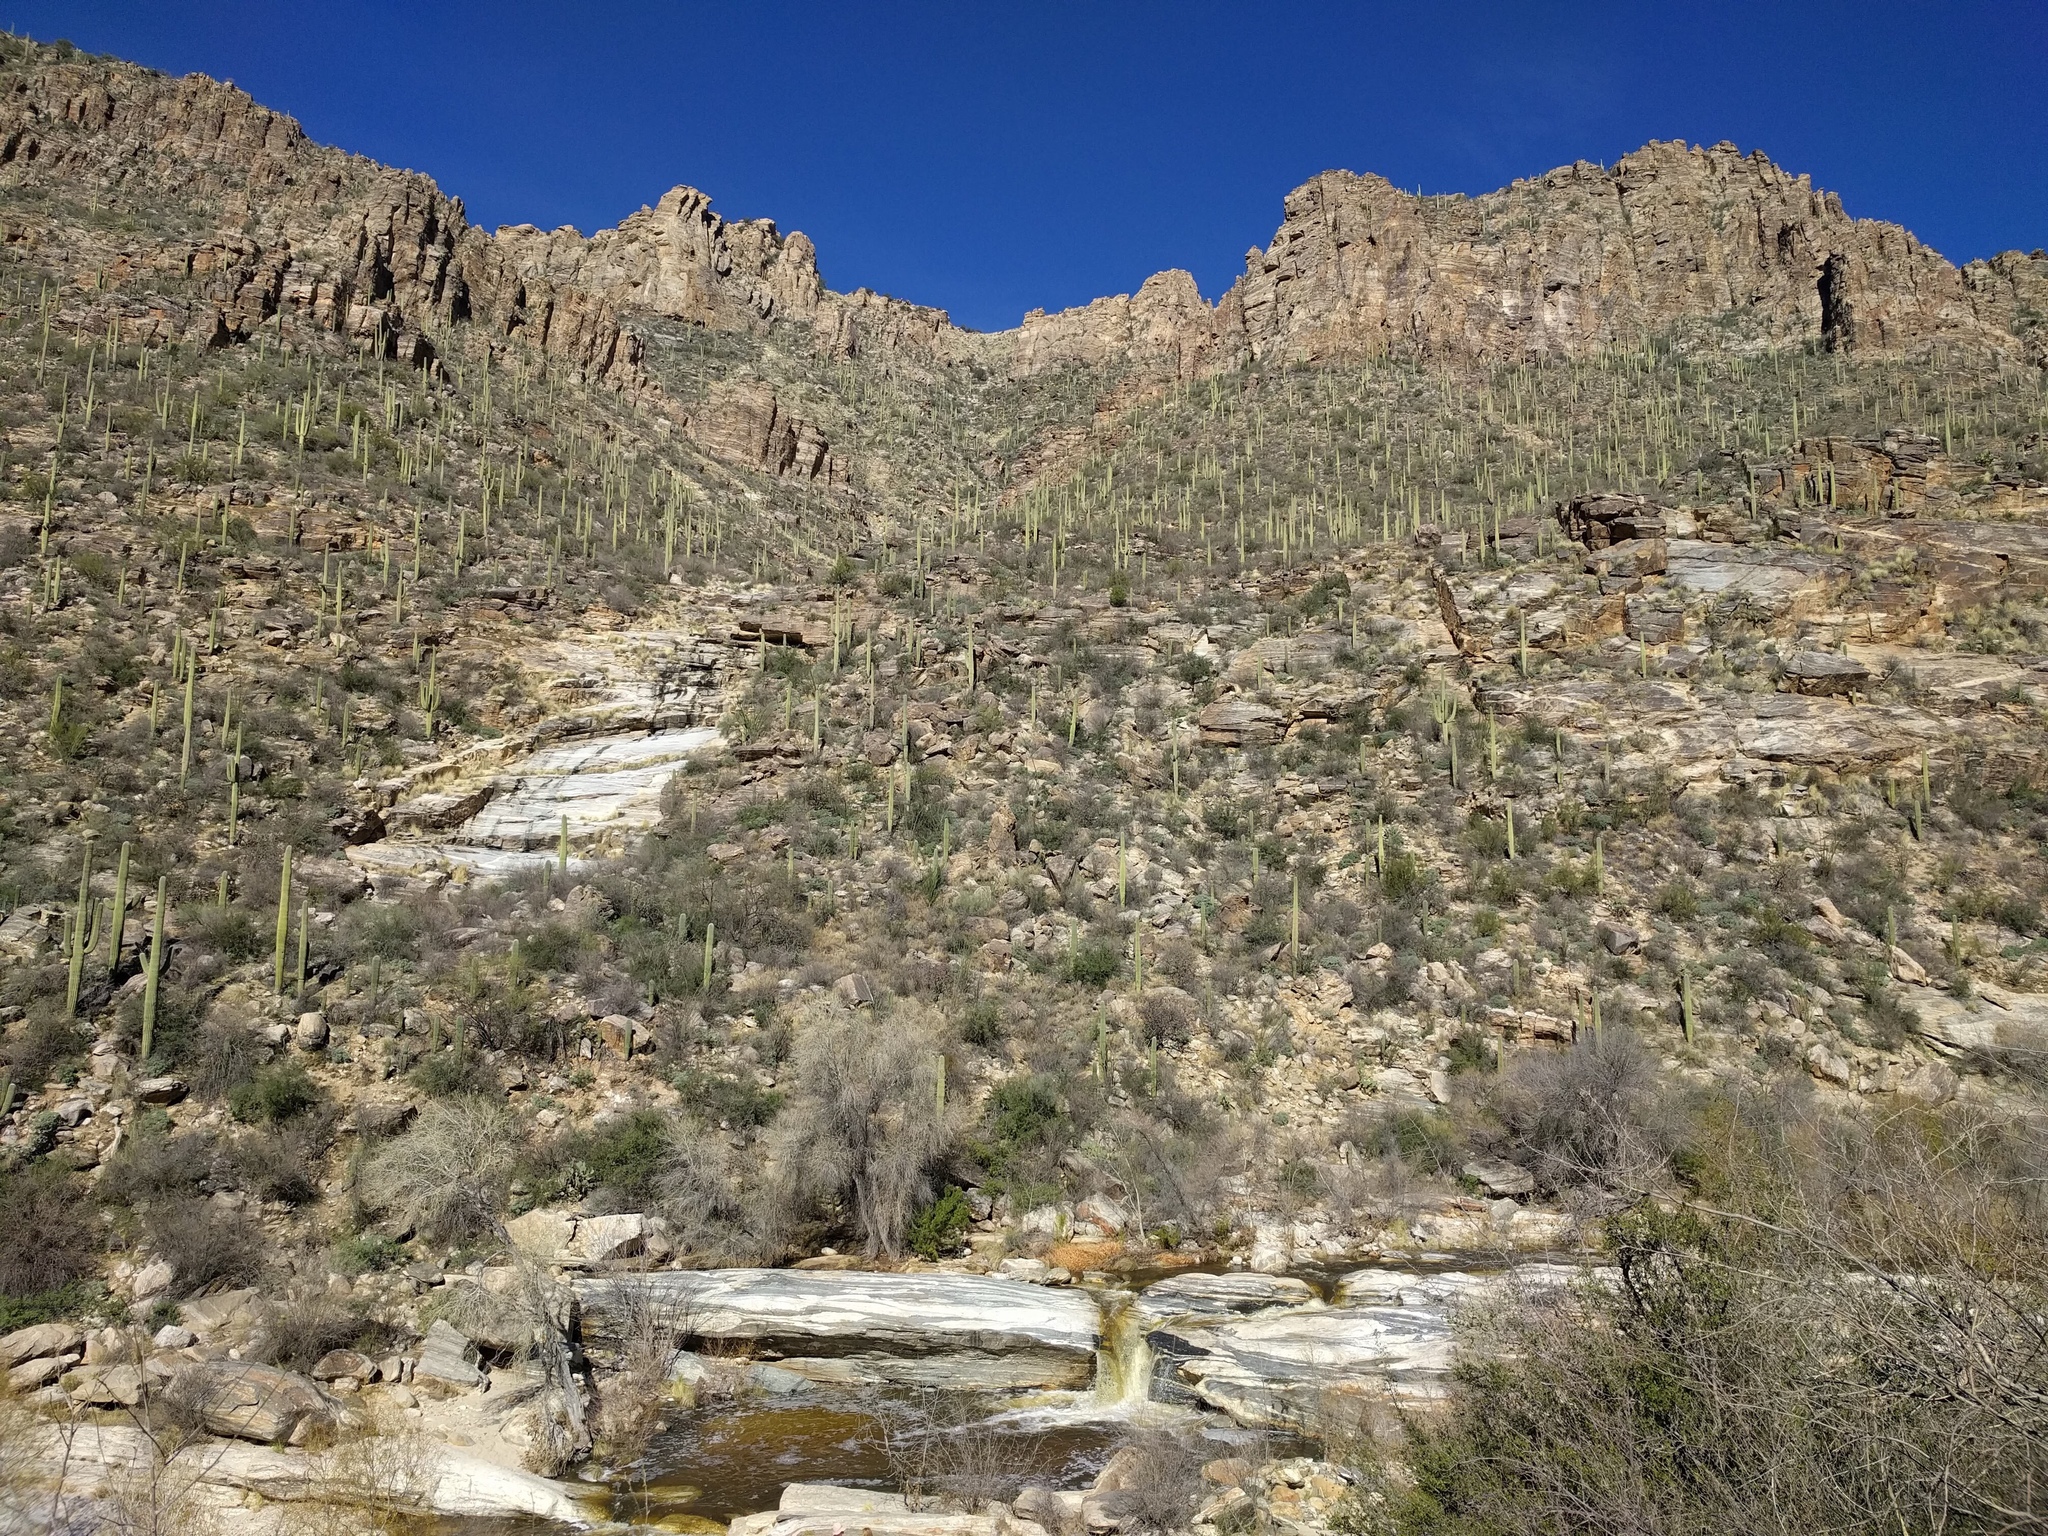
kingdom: Plantae
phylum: Tracheophyta
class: Magnoliopsida
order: Caryophyllales
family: Cactaceae
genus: Carnegiea
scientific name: Carnegiea gigantea
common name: Saguaro
